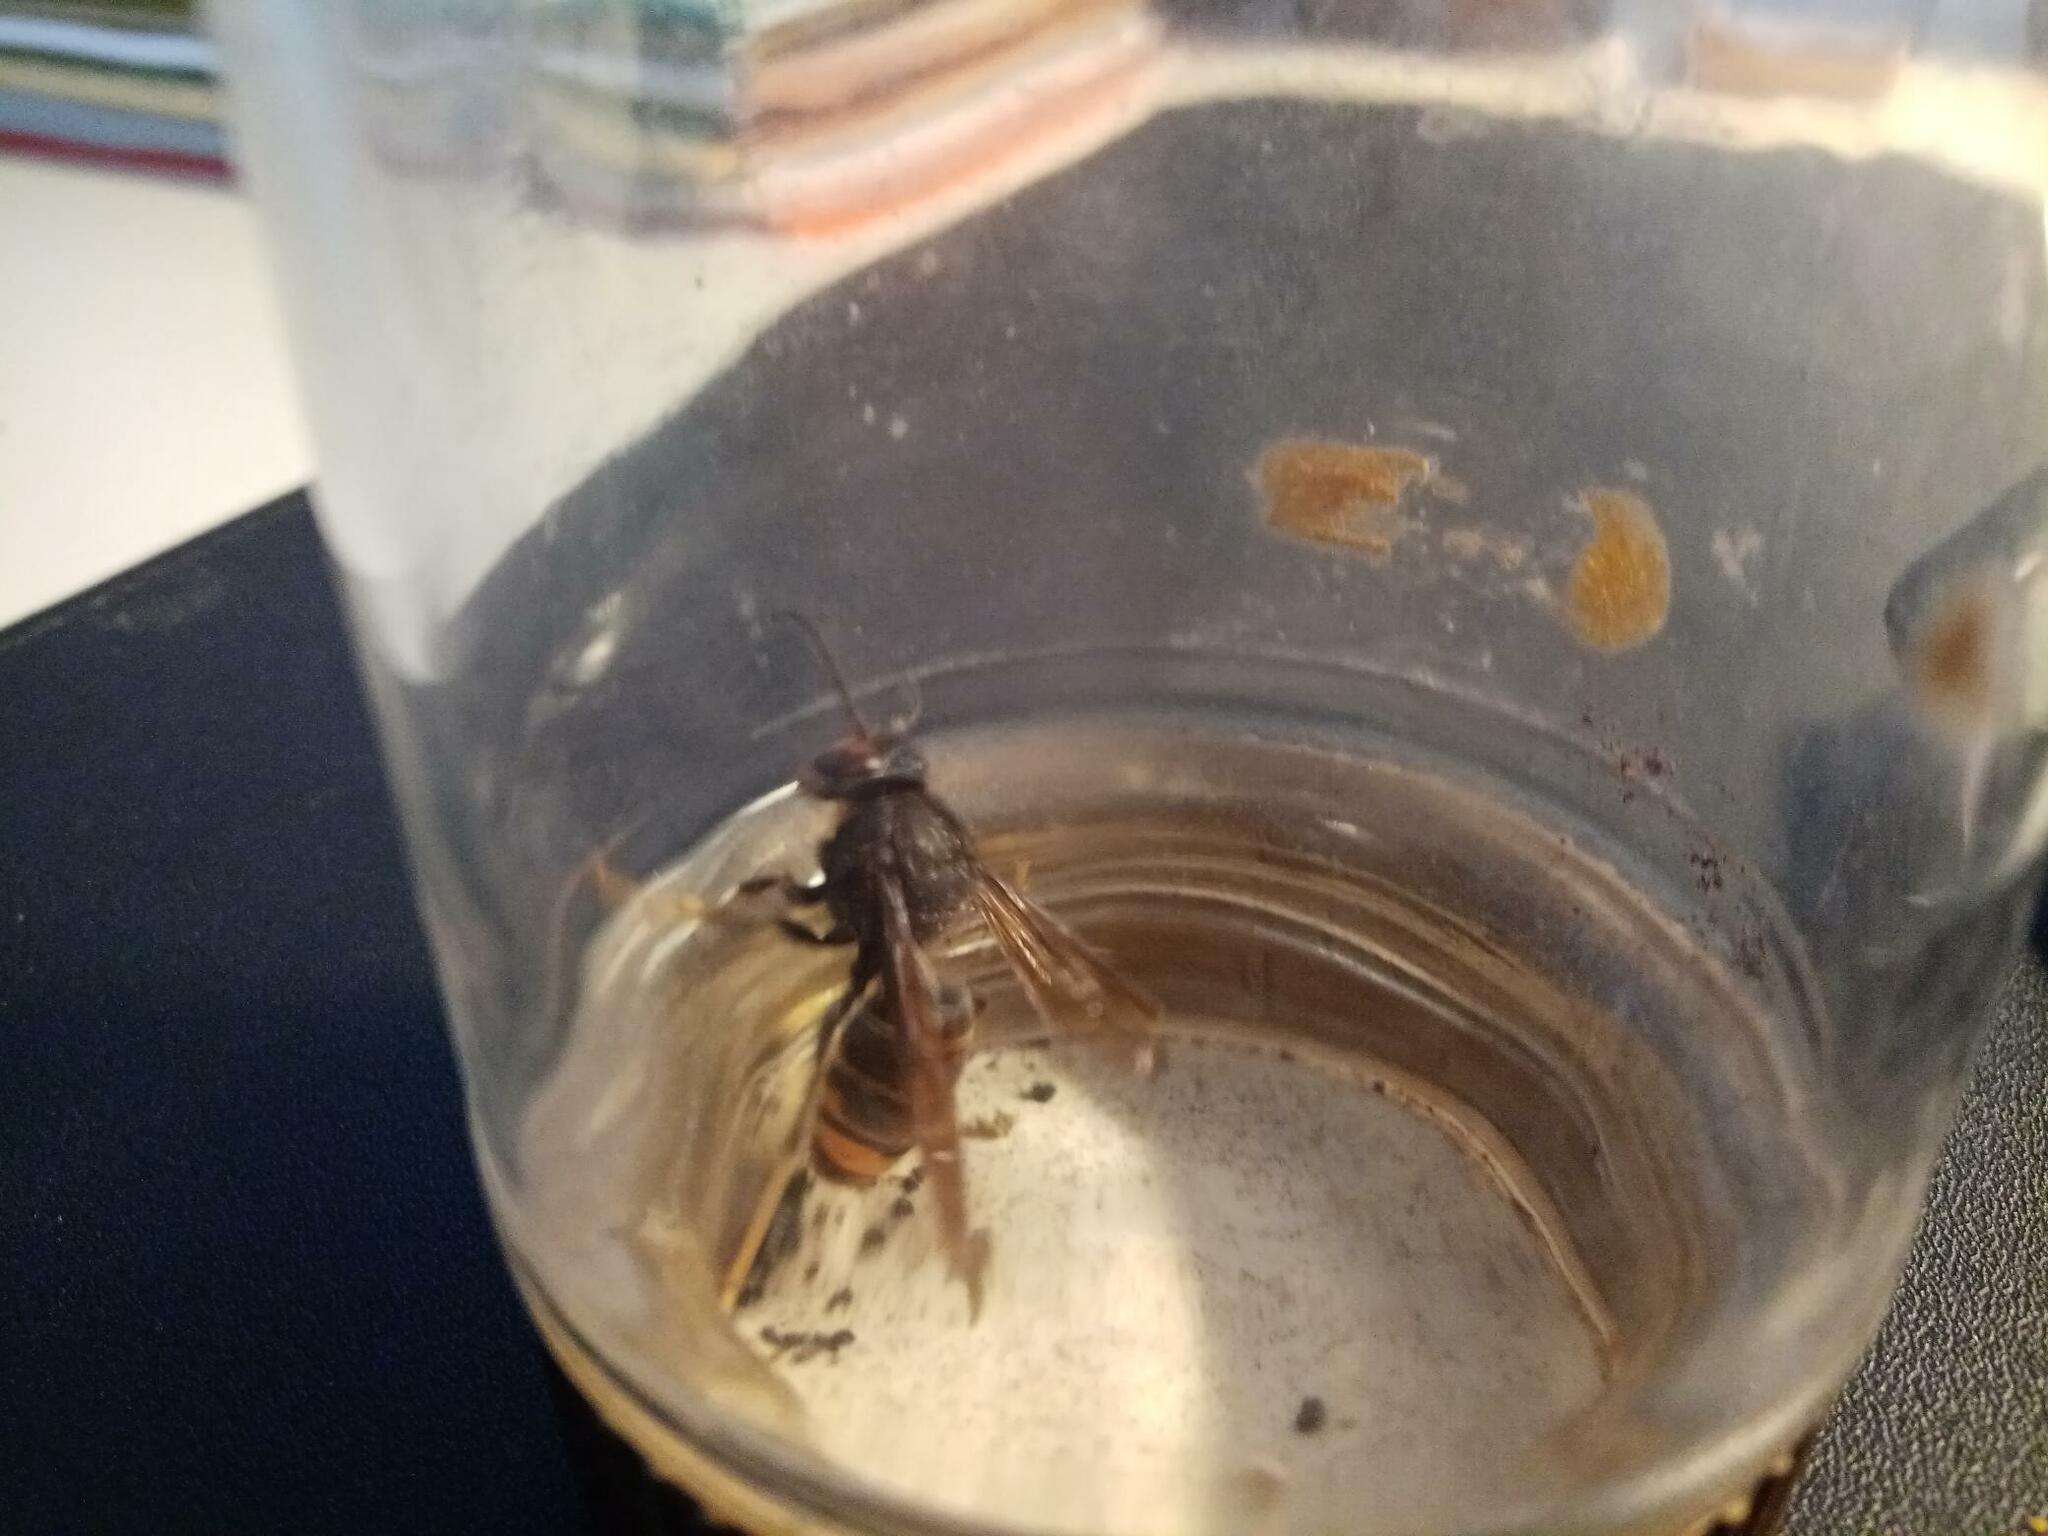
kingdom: Animalia
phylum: Arthropoda
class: Insecta
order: Hymenoptera
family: Vespidae
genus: Vespa
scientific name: Vespa velutina
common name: Asian hornet
